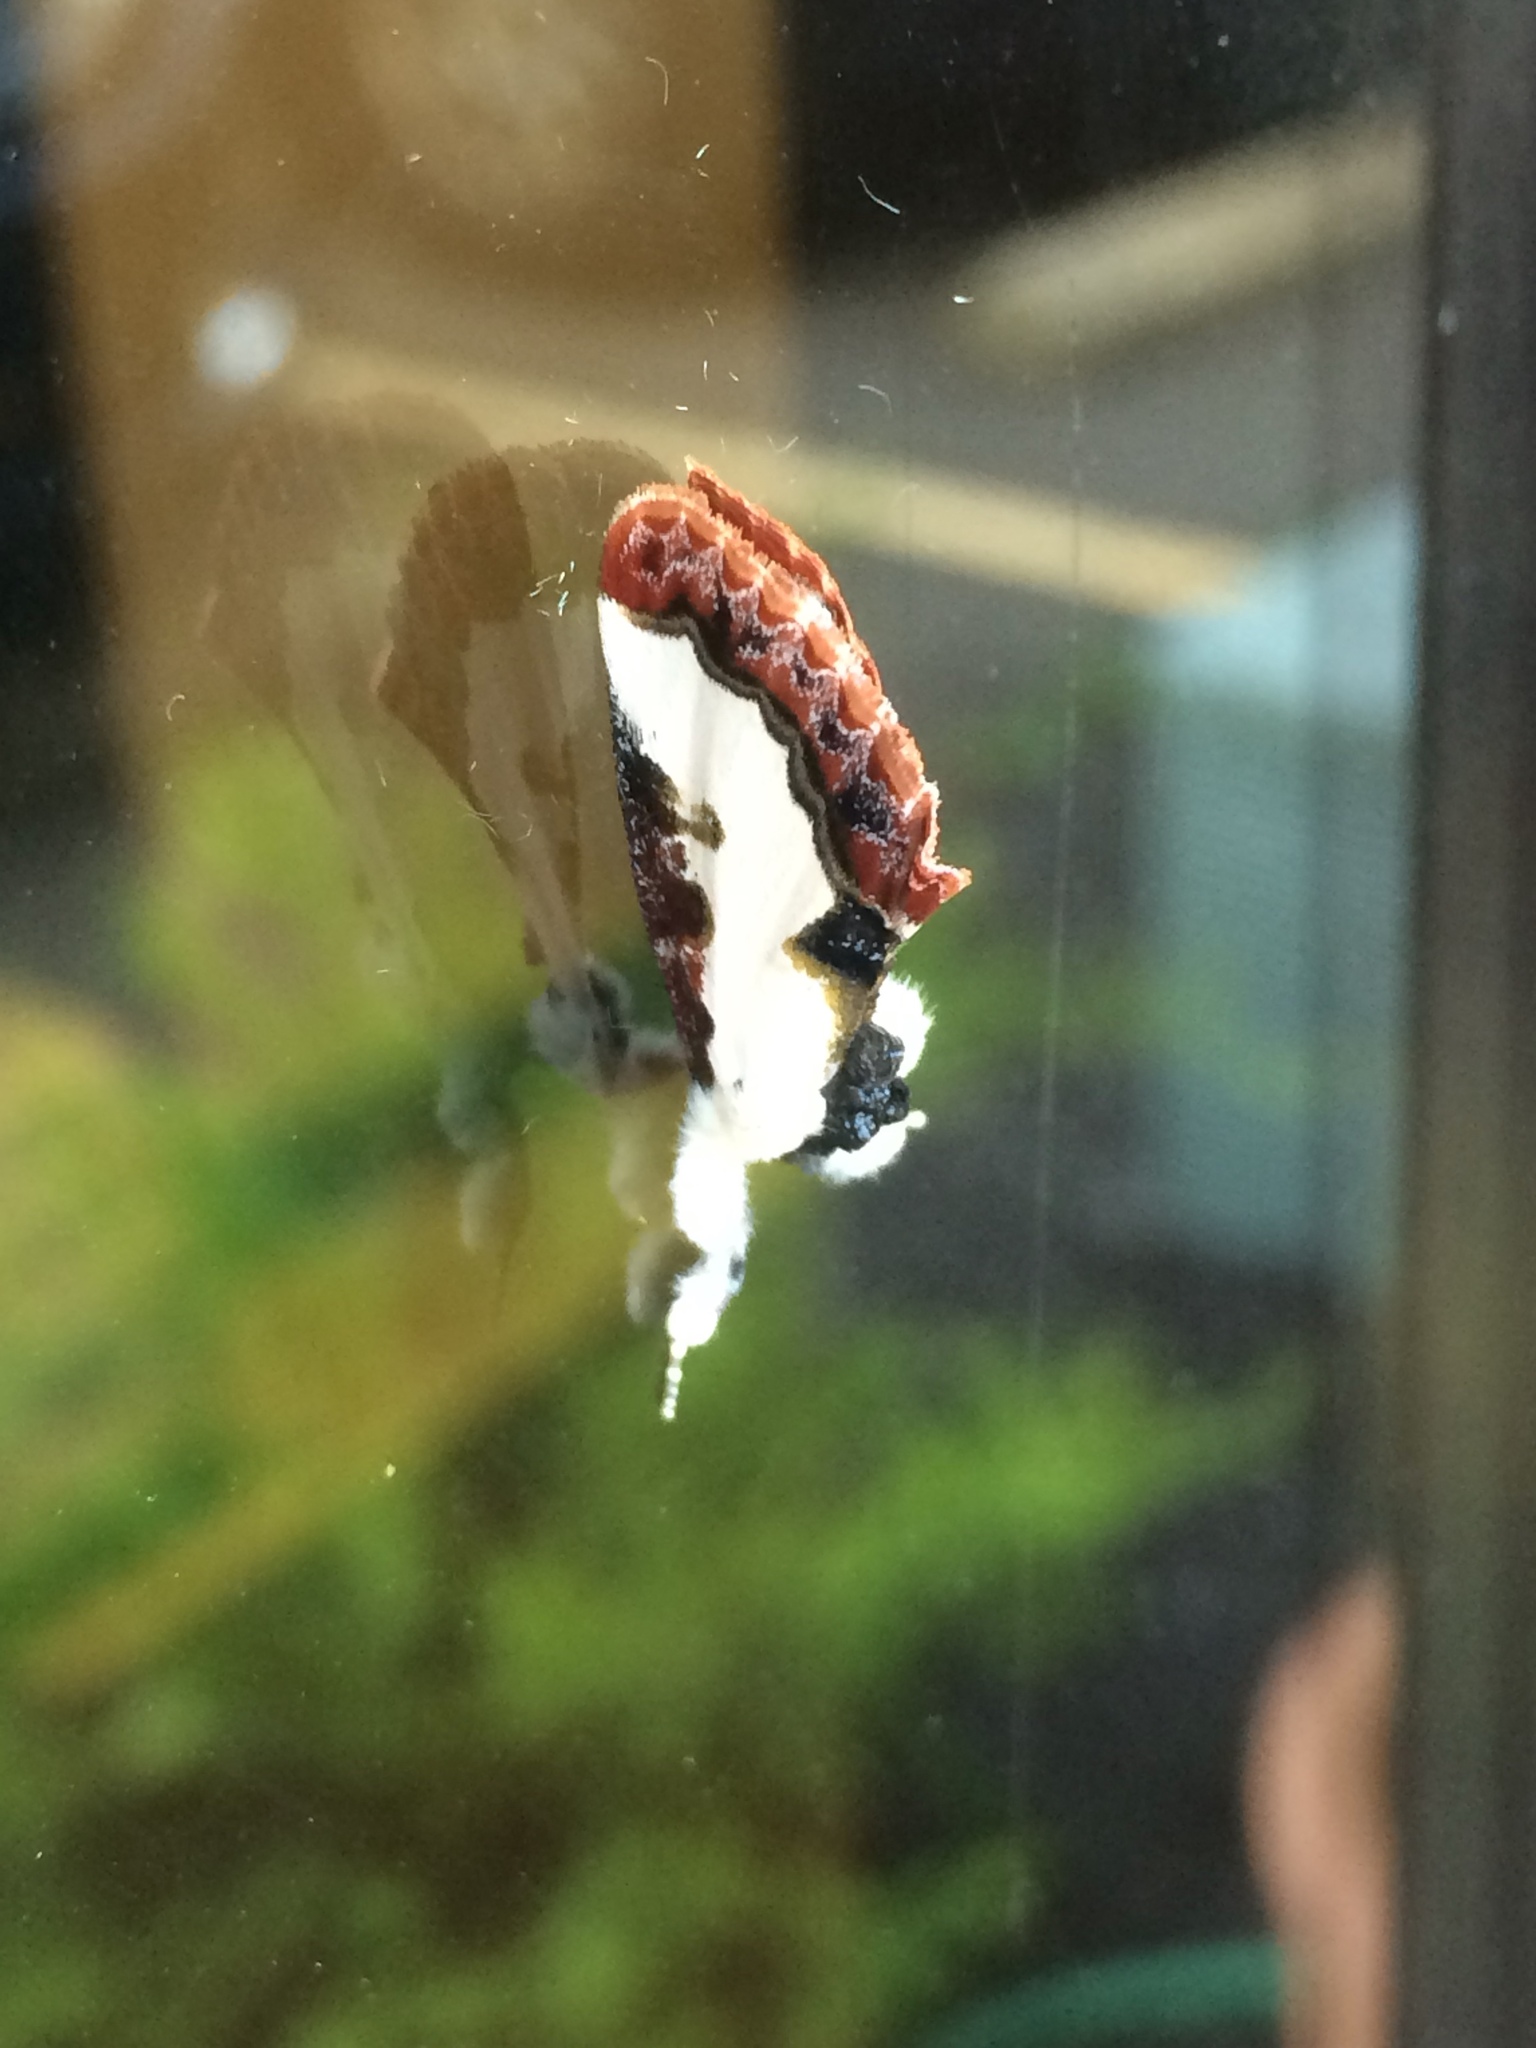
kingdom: Animalia
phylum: Arthropoda
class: Insecta
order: Lepidoptera
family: Noctuidae
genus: Eudryas
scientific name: Eudryas unio
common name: Pearly wood-nymph
